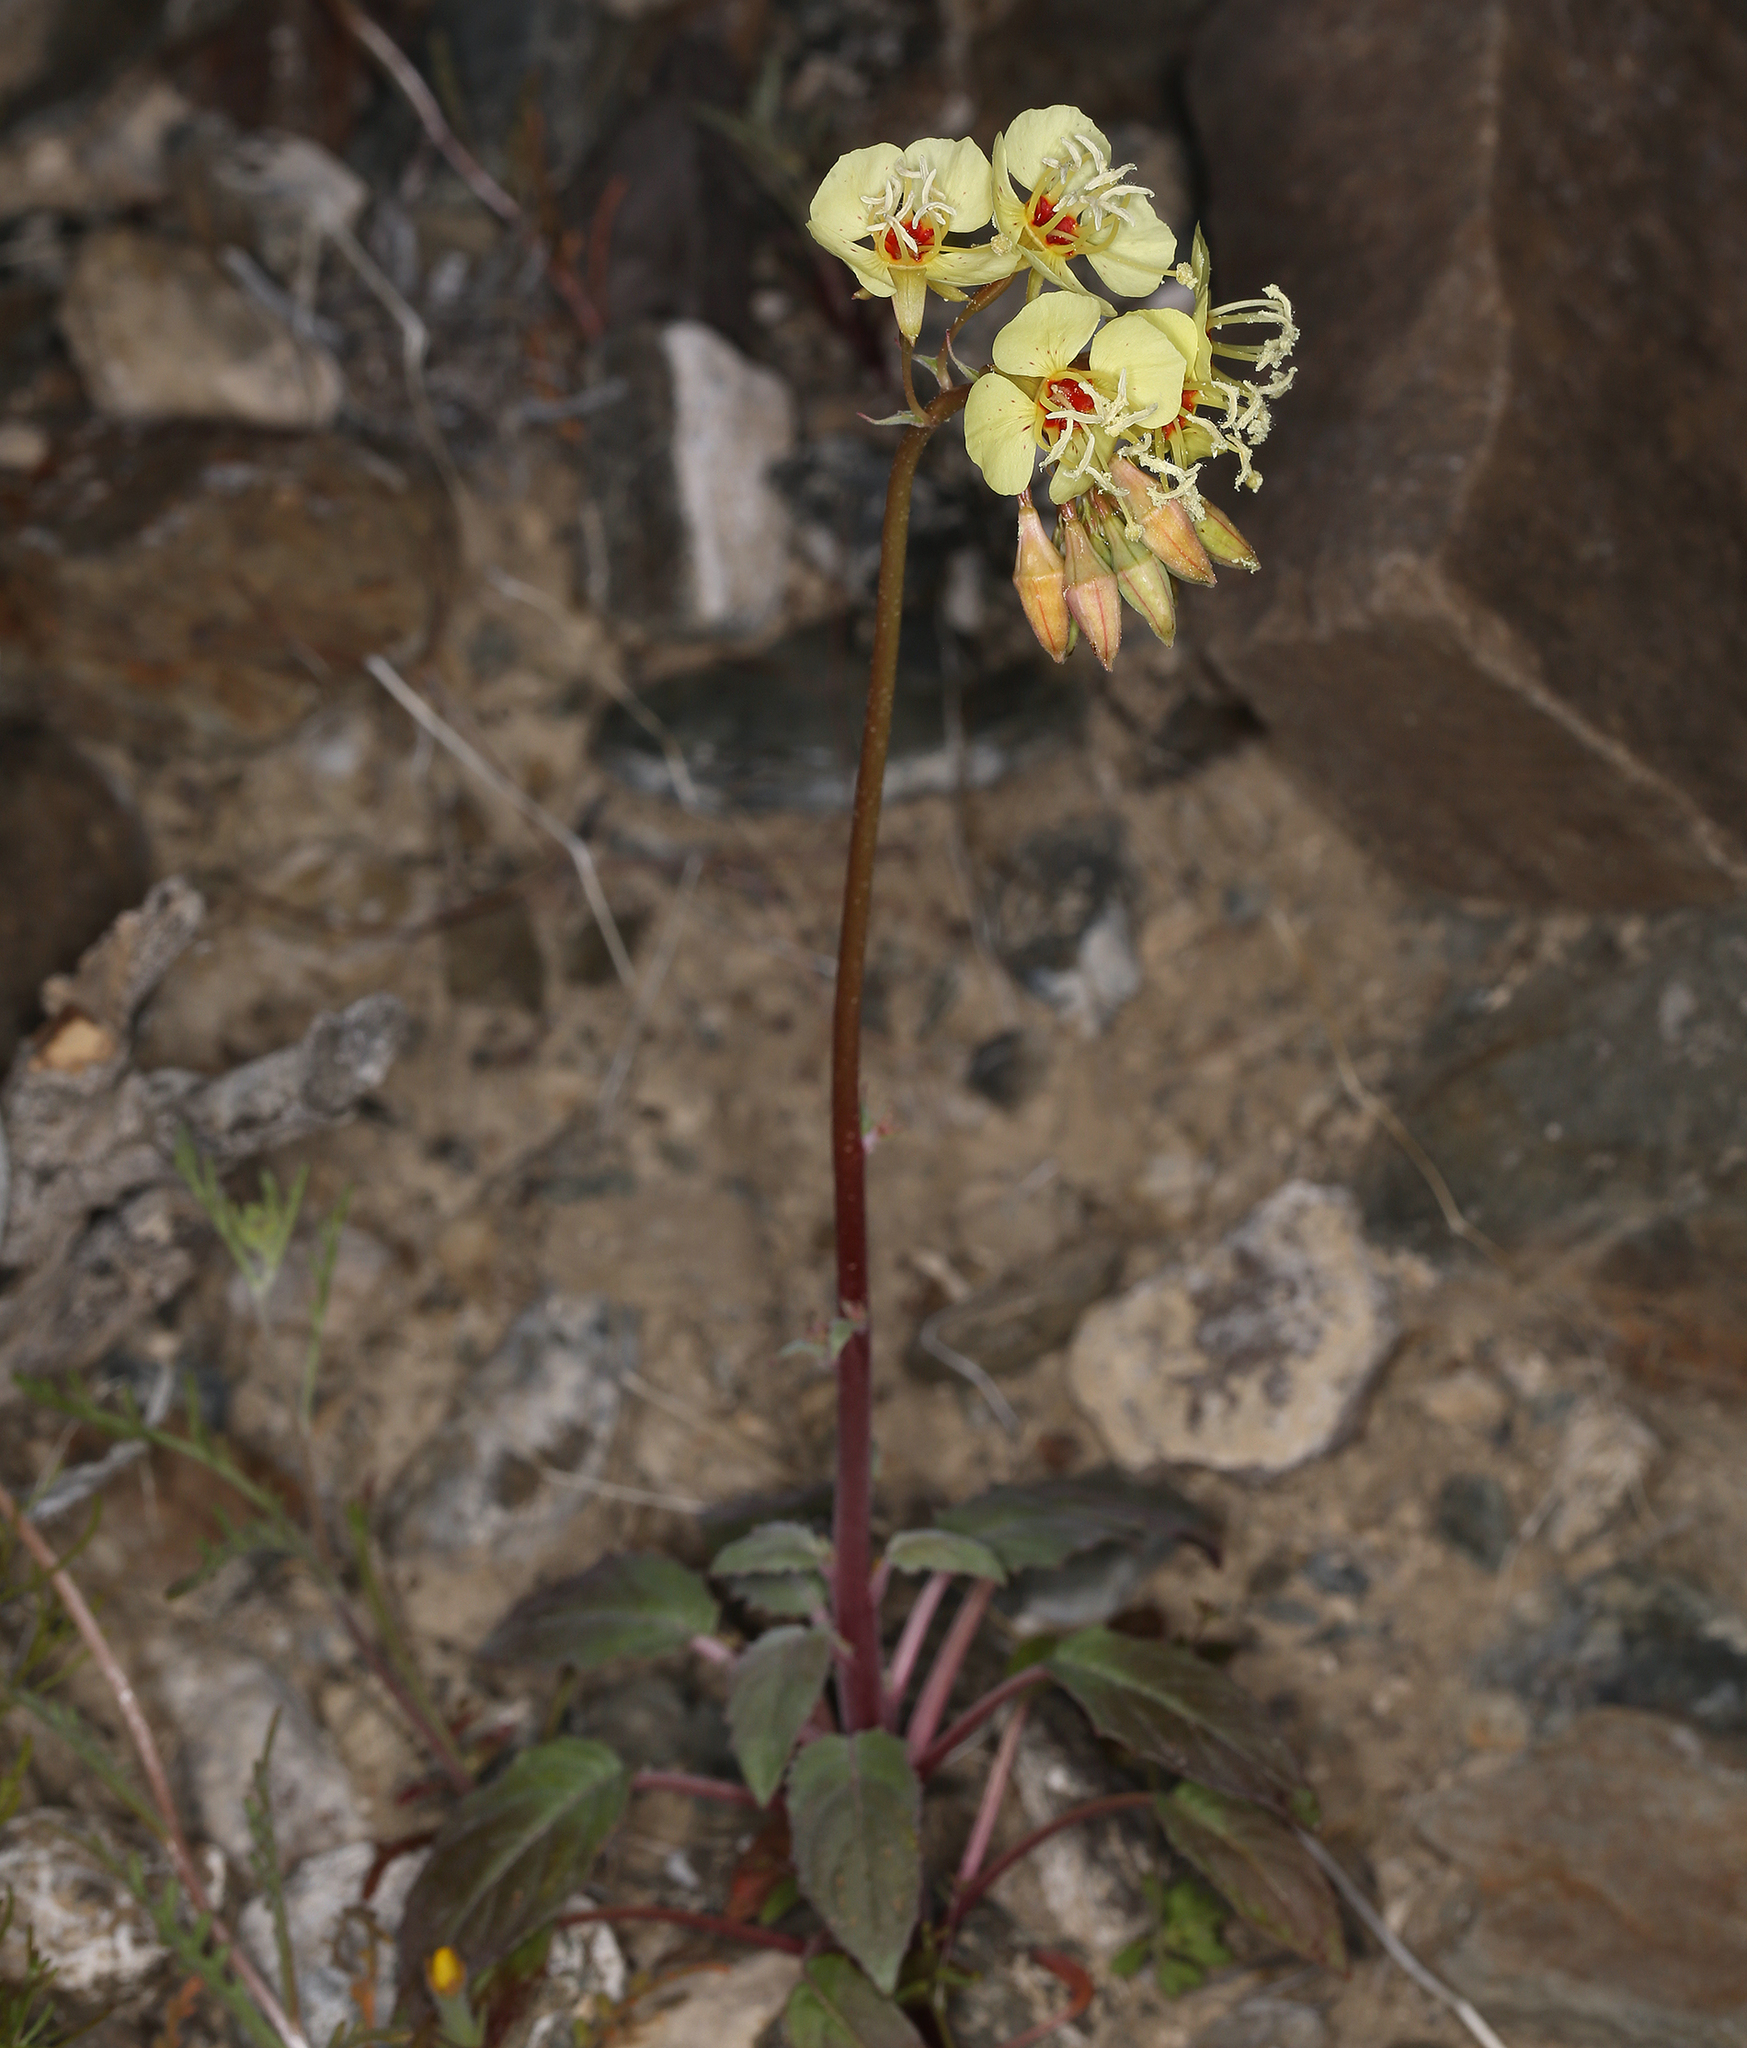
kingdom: Plantae
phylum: Tracheophyta
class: Magnoliopsida
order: Myrtales
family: Onagraceae
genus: Chylismia
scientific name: Chylismia claviformis
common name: Browneyes
